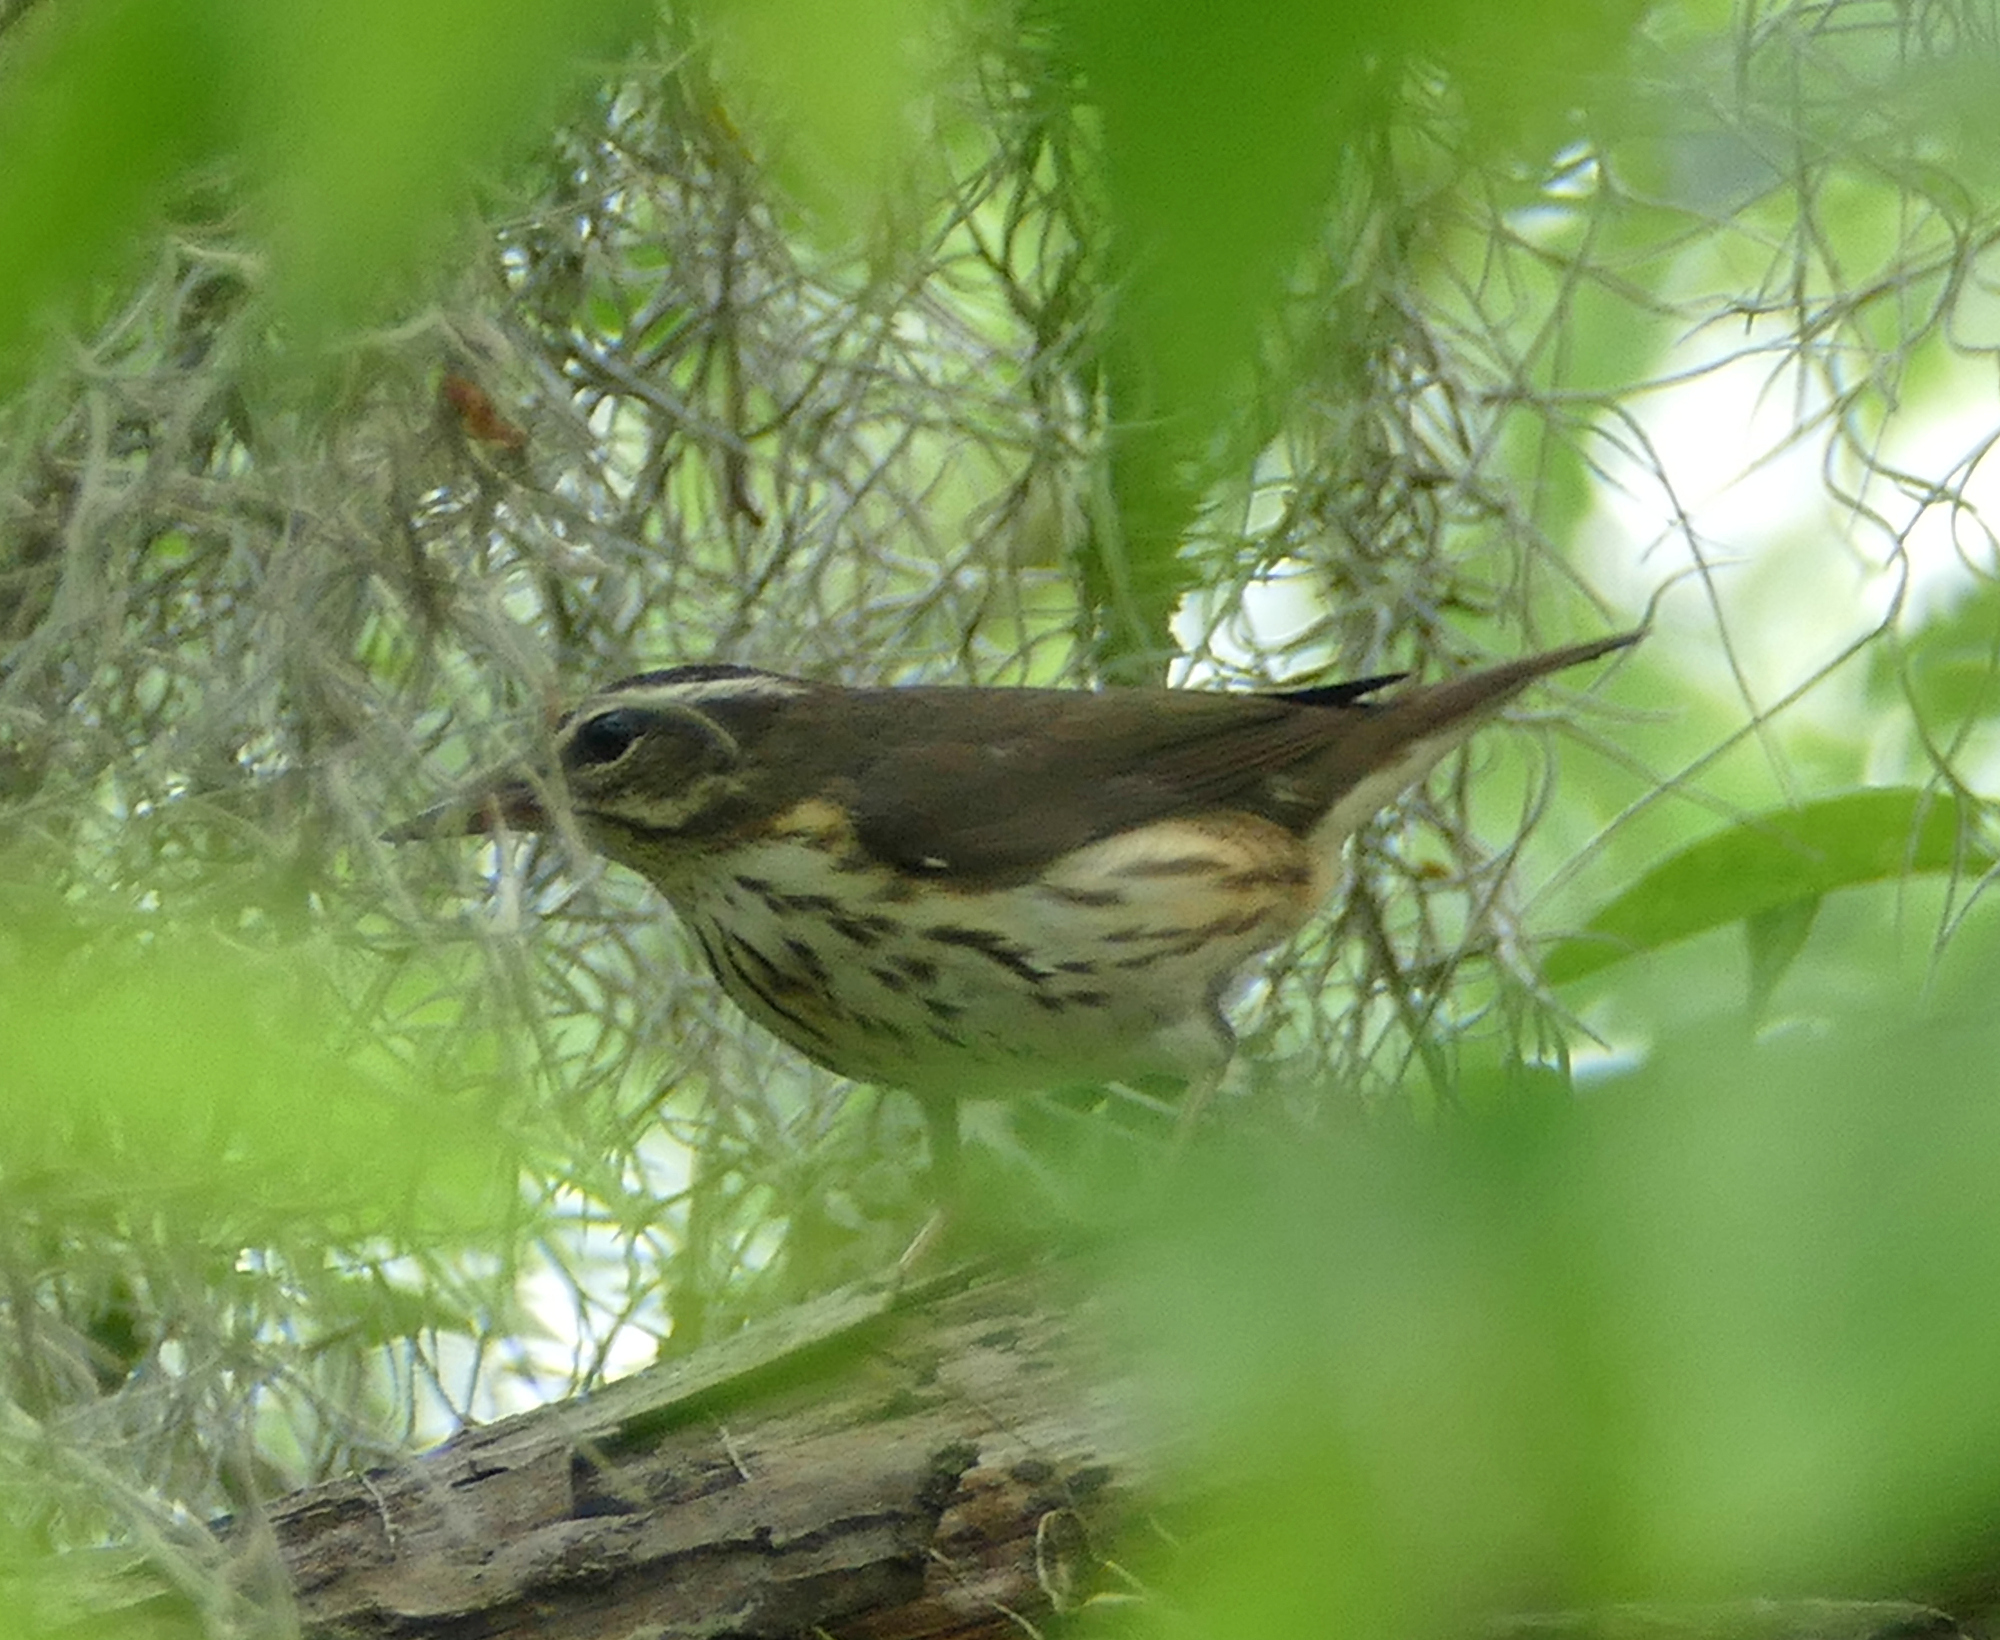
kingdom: Animalia
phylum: Chordata
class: Aves
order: Passeriformes
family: Parulidae
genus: Parkesia
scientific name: Parkesia motacilla
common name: Louisiana waterthrush
